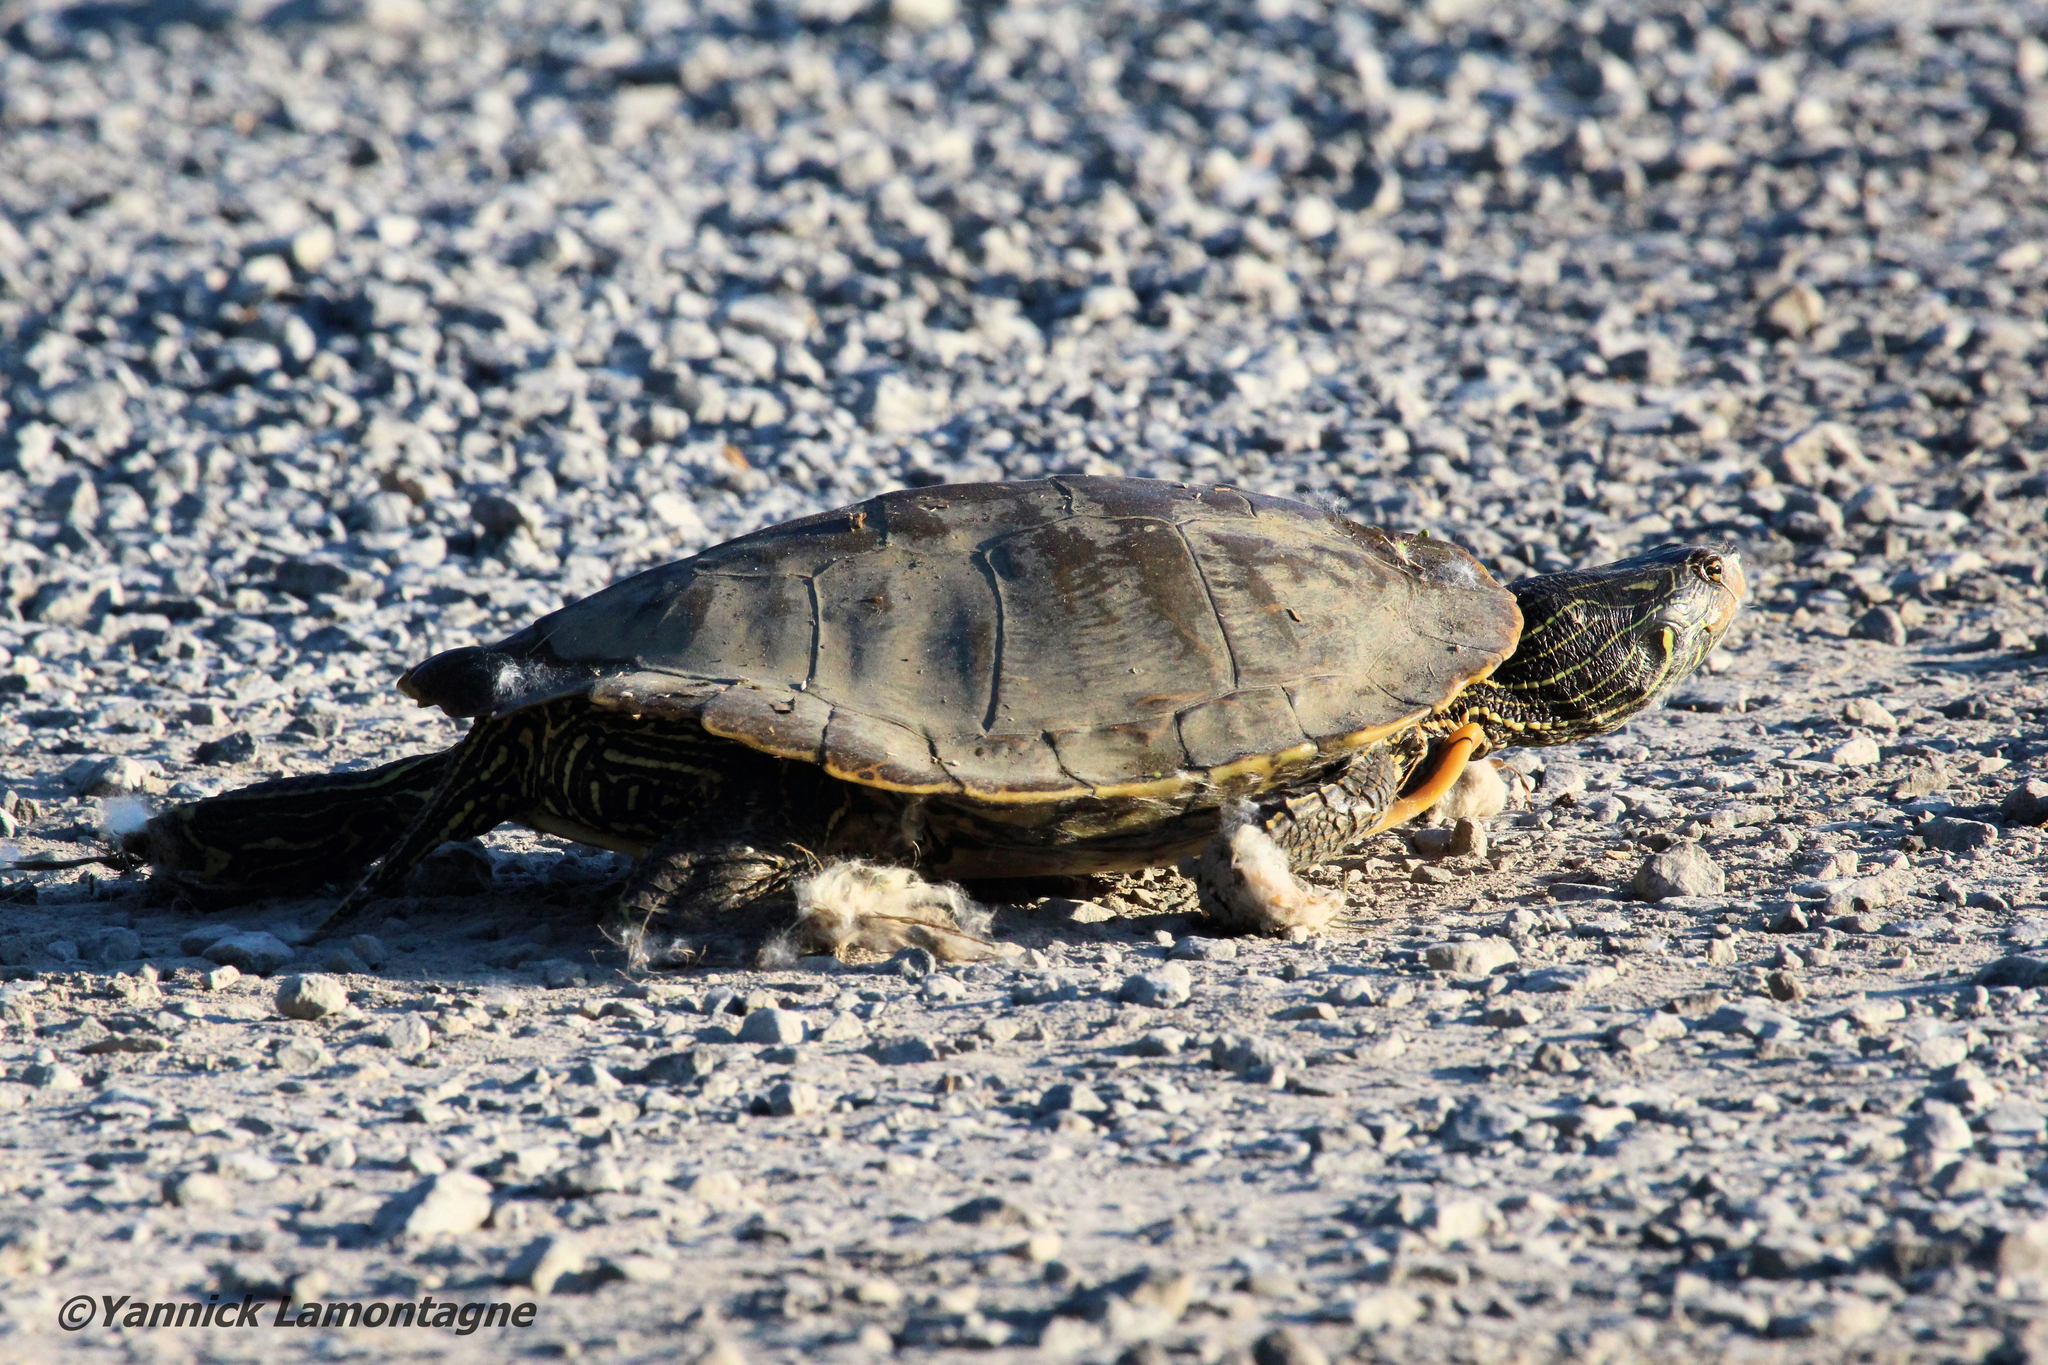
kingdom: Animalia
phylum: Chordata
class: Testudines
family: Emydidae
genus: Graptemys
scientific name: Graptemys geographica
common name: Common map turtle
